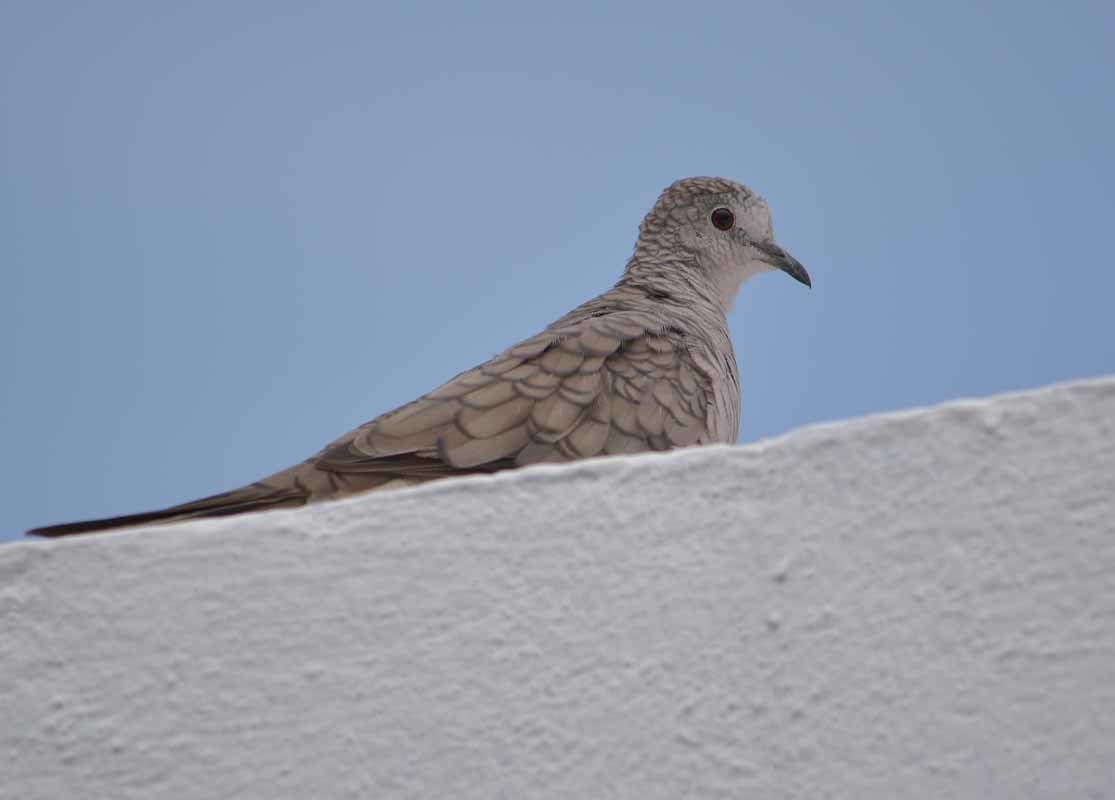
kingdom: Animalia
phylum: Chordata
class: Aves
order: Columbiformes
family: Columbidae
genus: Columbina
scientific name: Columbina inca
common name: Inca dove
